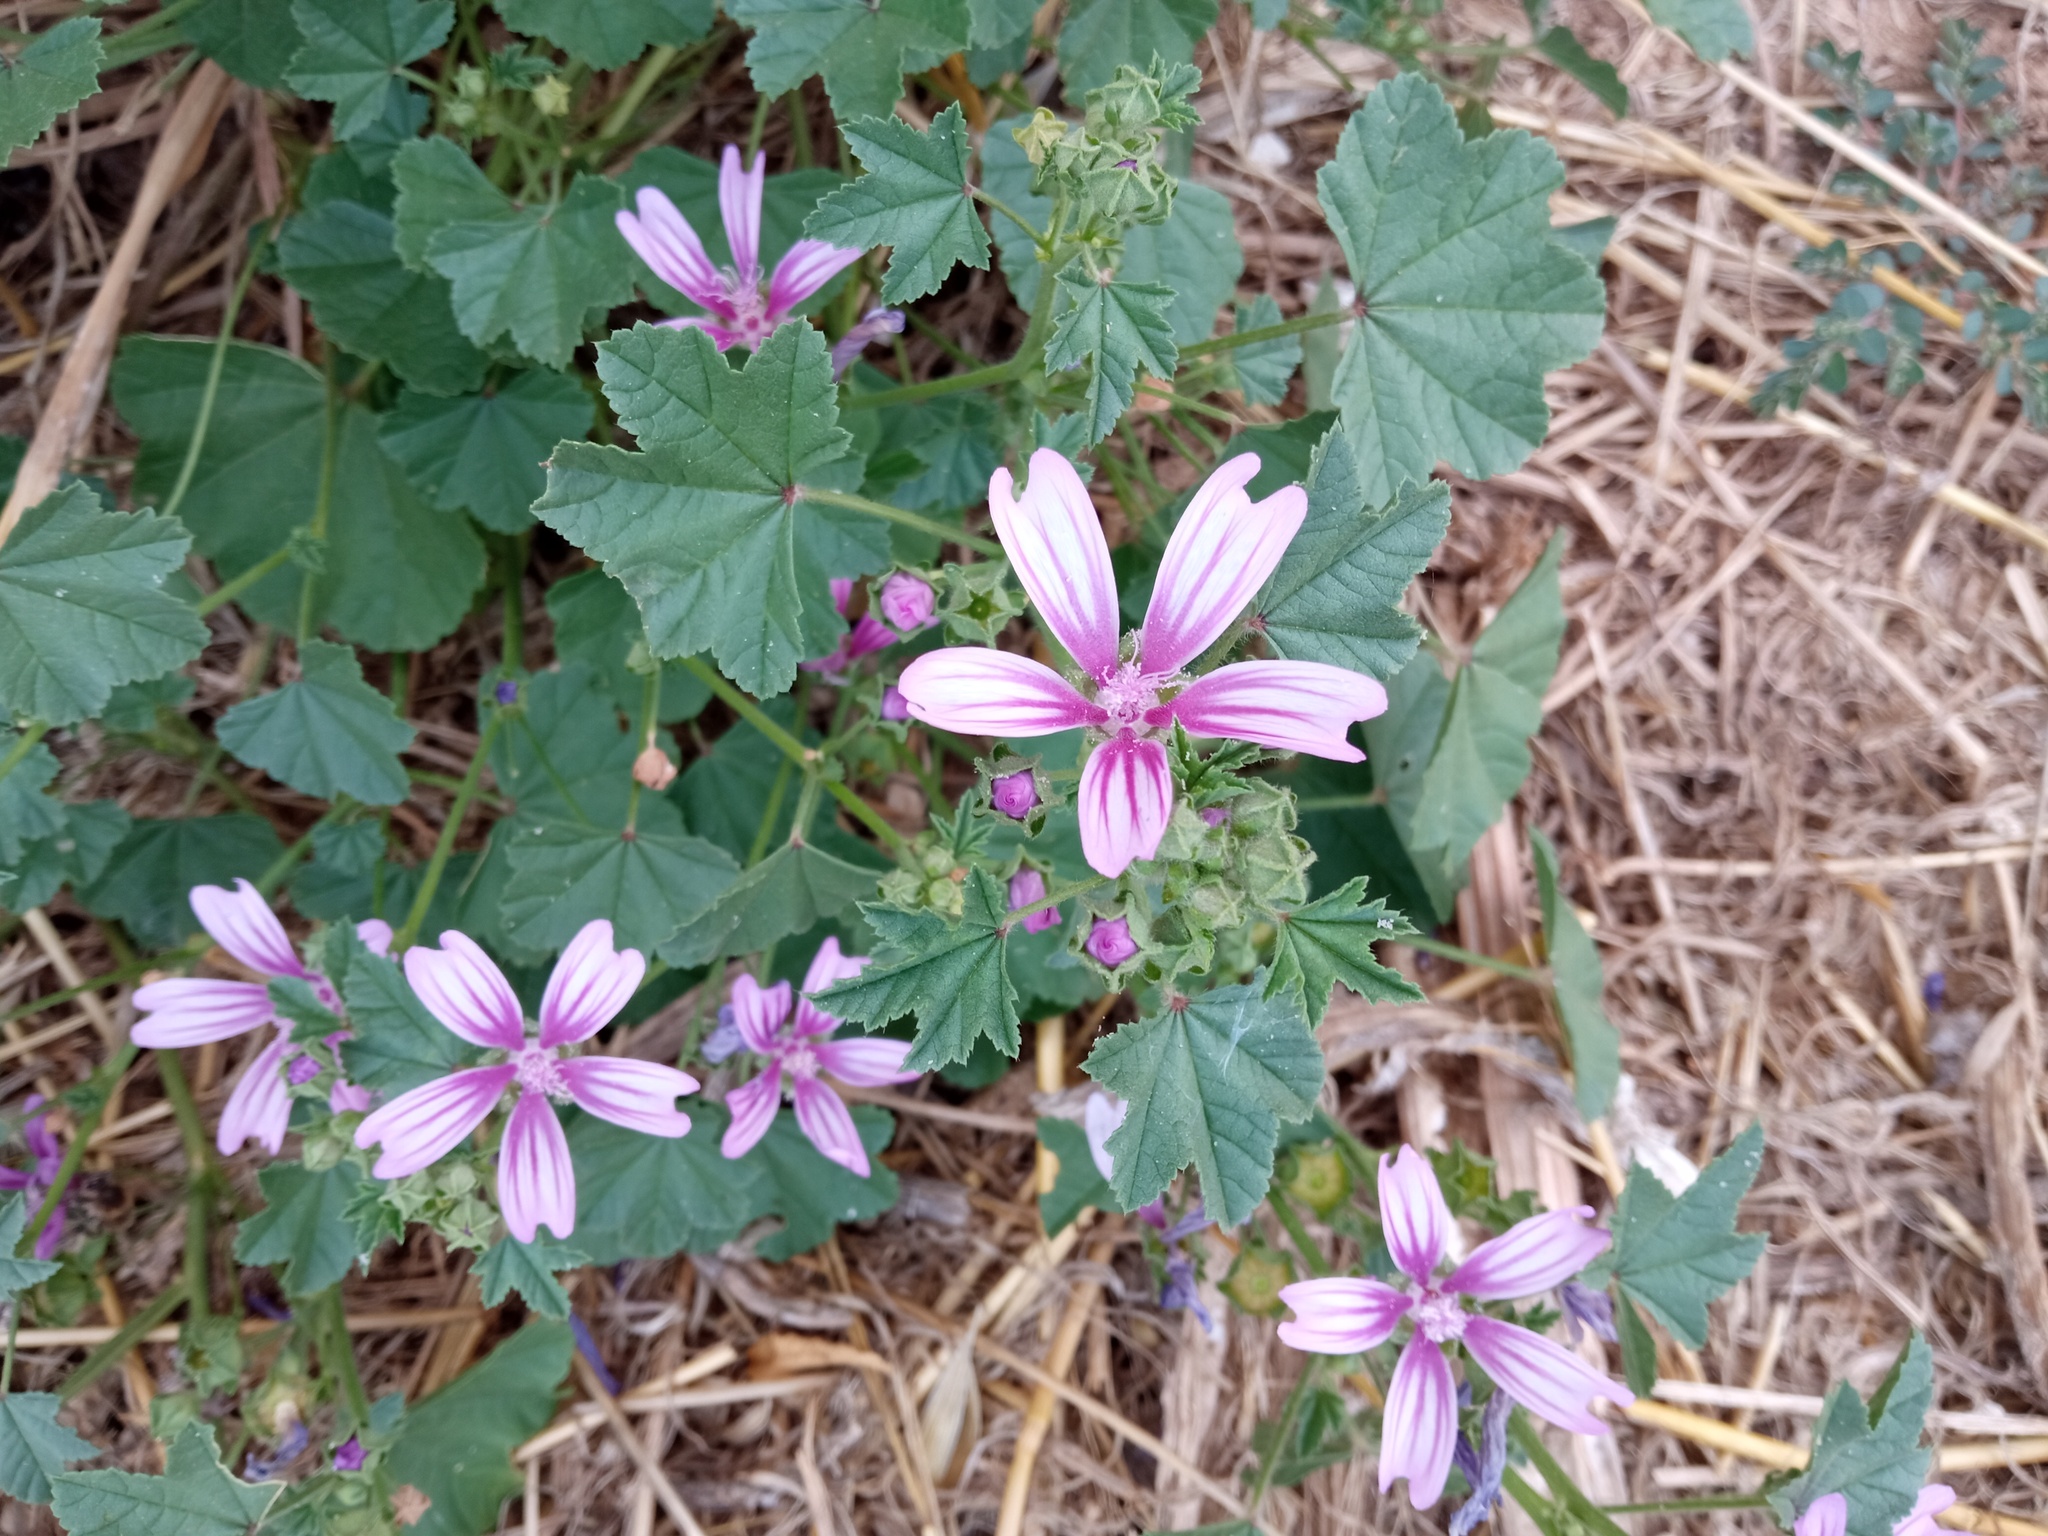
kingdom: Plantae
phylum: Tracheophyta
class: Magnoliopsida
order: Malvales
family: Malvaceae
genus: Malva
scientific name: Malva sylvestris
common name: Common mallow
